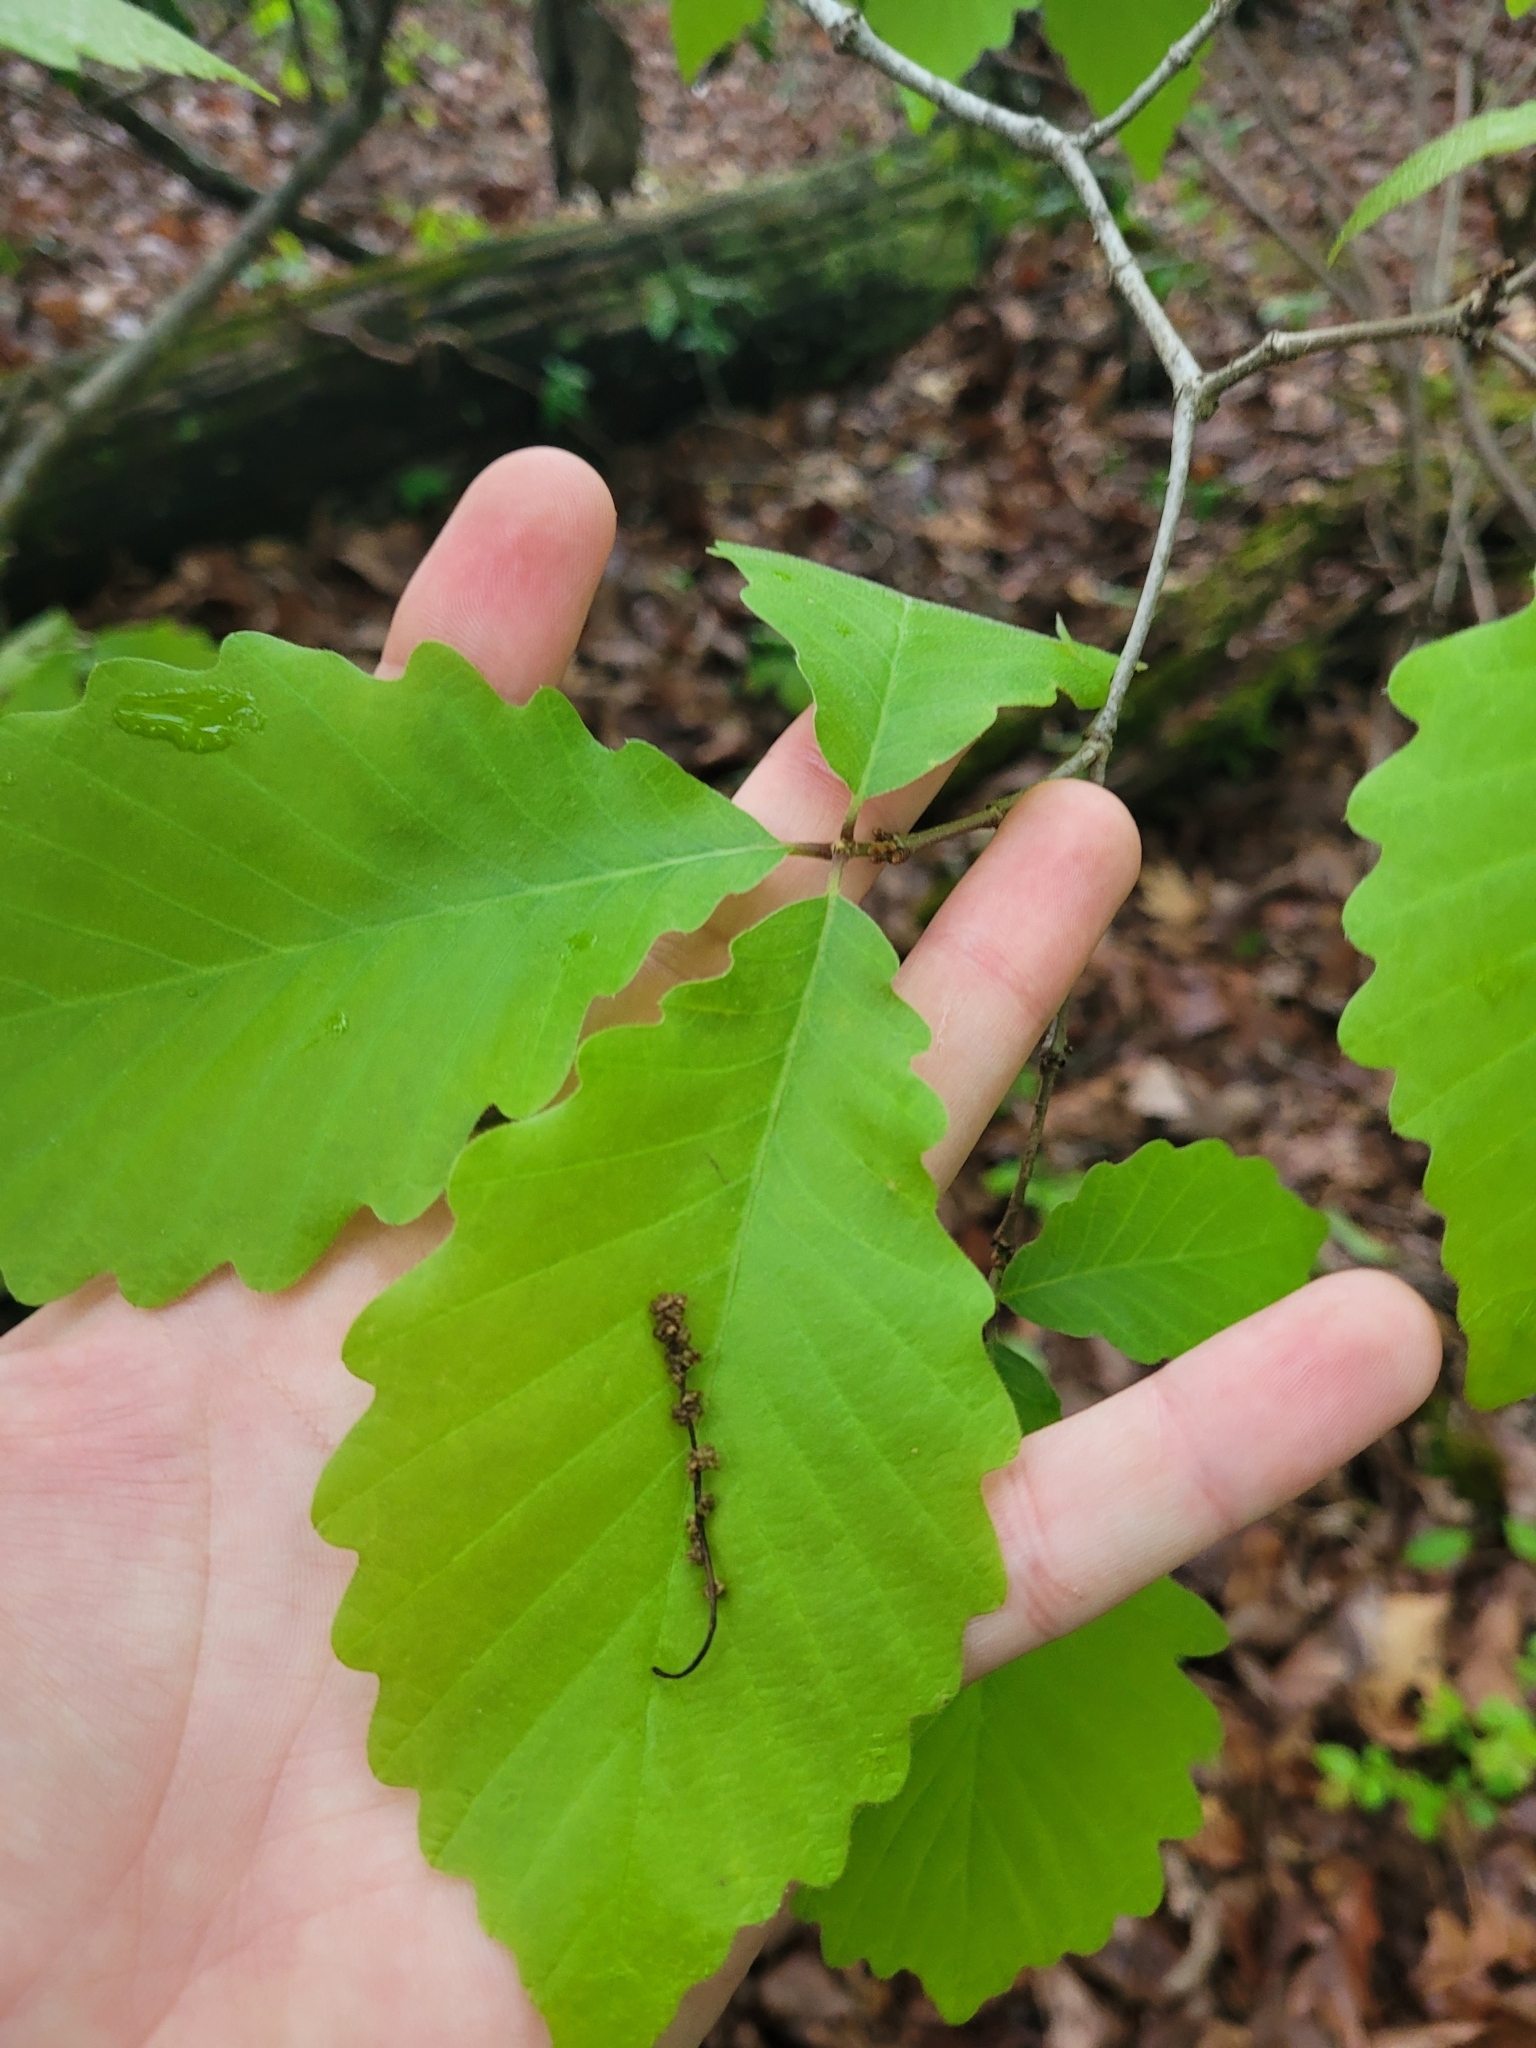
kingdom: Plantae
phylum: Tracheophyta
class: Magnoliopsida
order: Fagales
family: Fagaceae
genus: Quercus
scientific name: Quercus montana
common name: Chestnut oak
